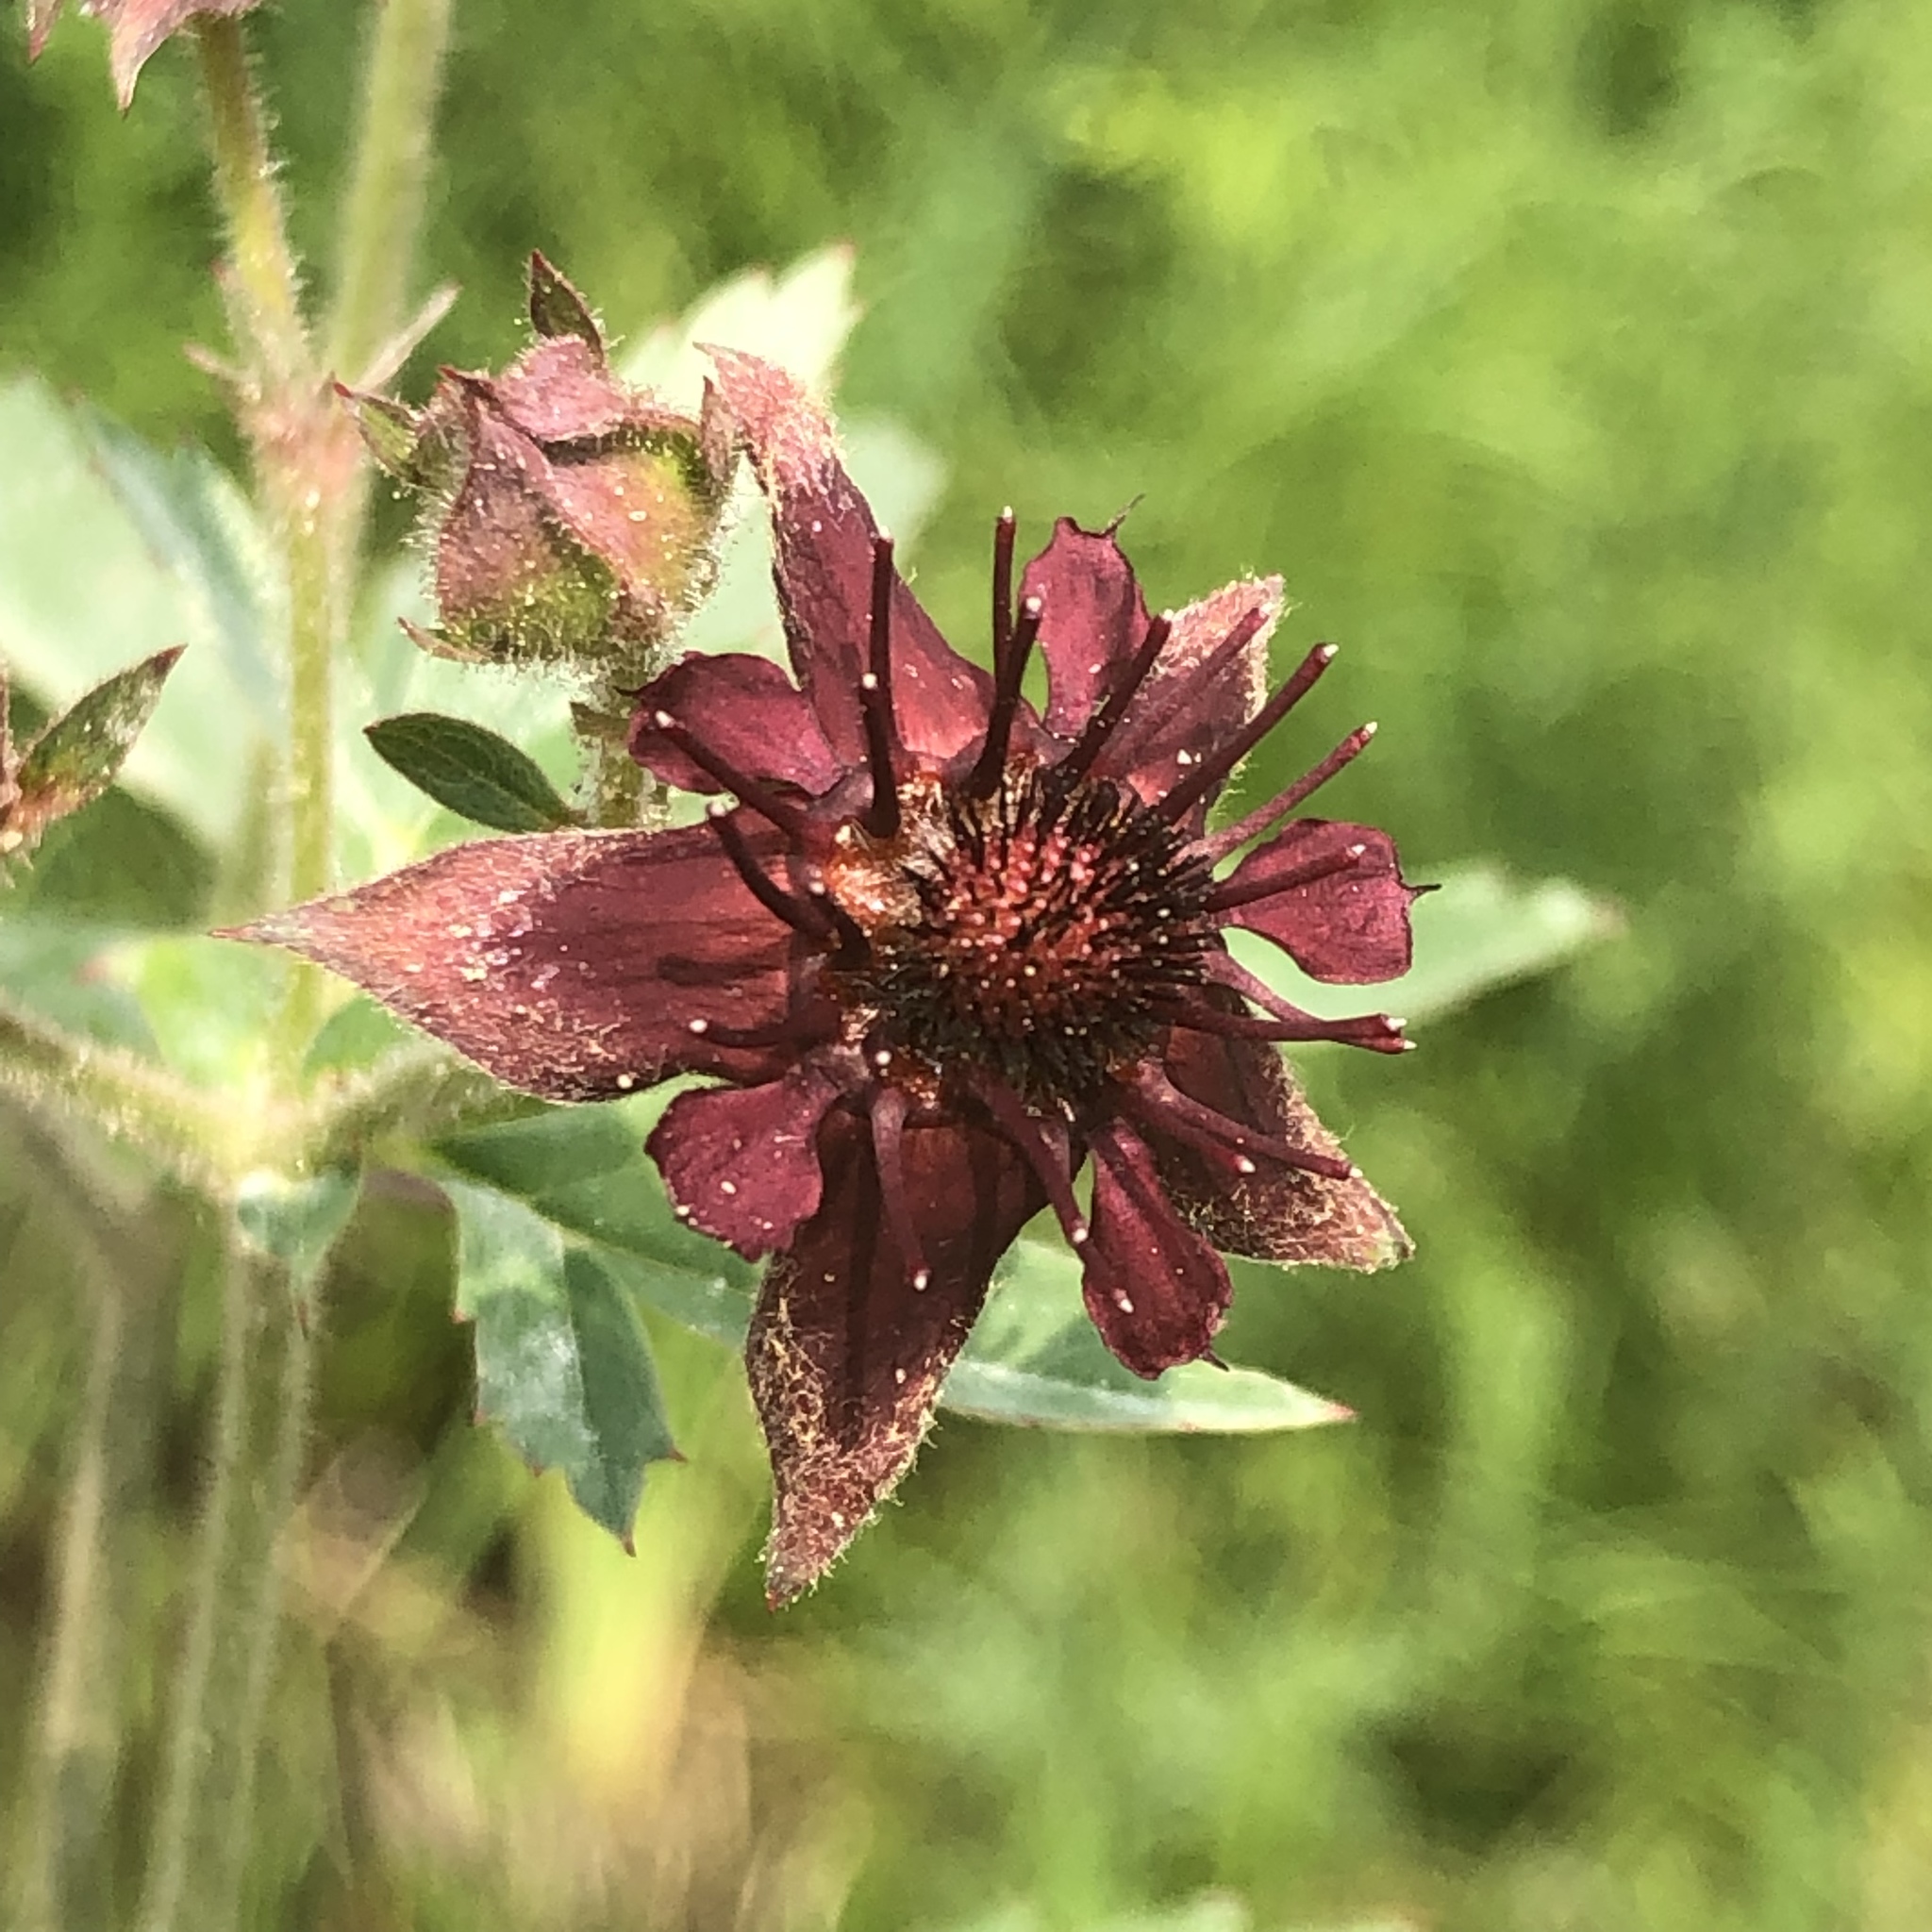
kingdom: Plantae
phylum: Tracheophyta
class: Magnoliopsida
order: Rosales
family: Rosaceae
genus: Comarum
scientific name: Comarum palustre
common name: Marsh cinquefoil
